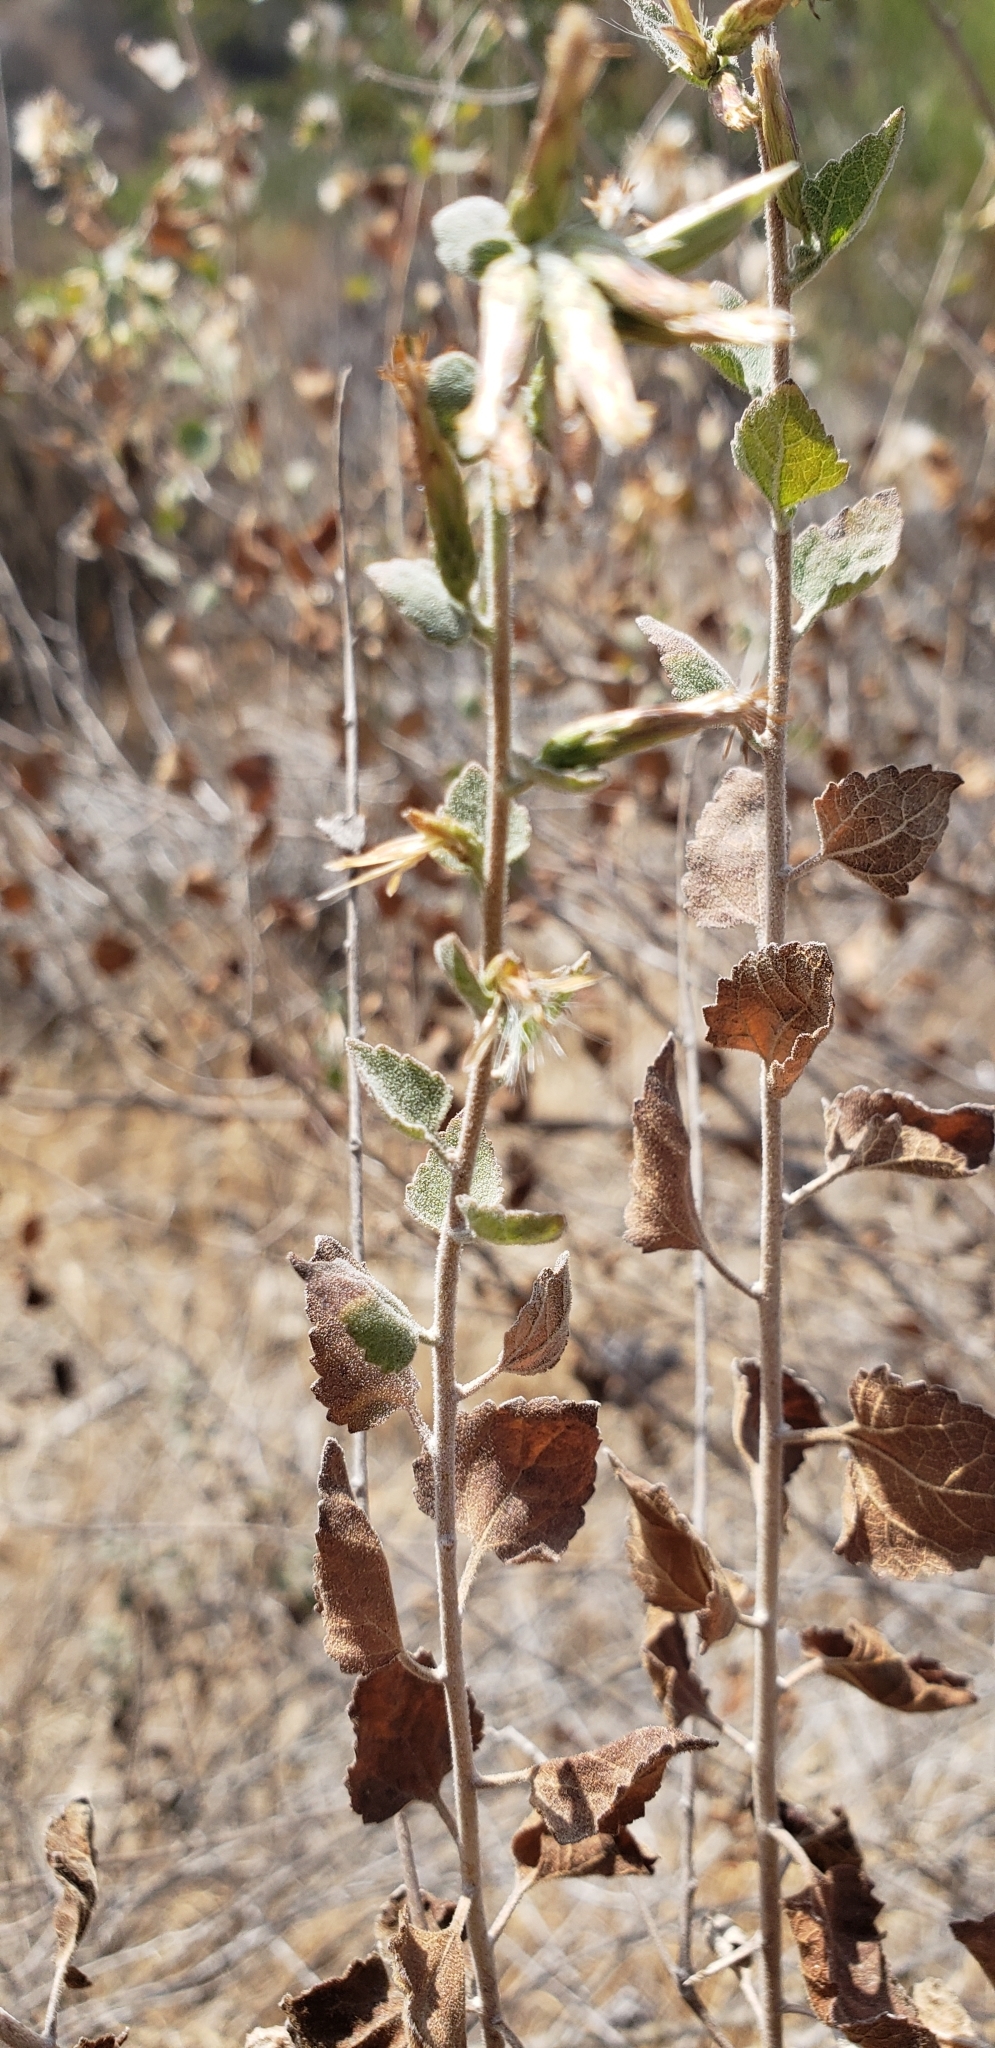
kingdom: Plantae
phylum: Tracheophyta
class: Magnoliopsida
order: Asterales
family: Asteraceae
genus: Brickellia
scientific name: Brickellia californica
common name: California brickellbush
